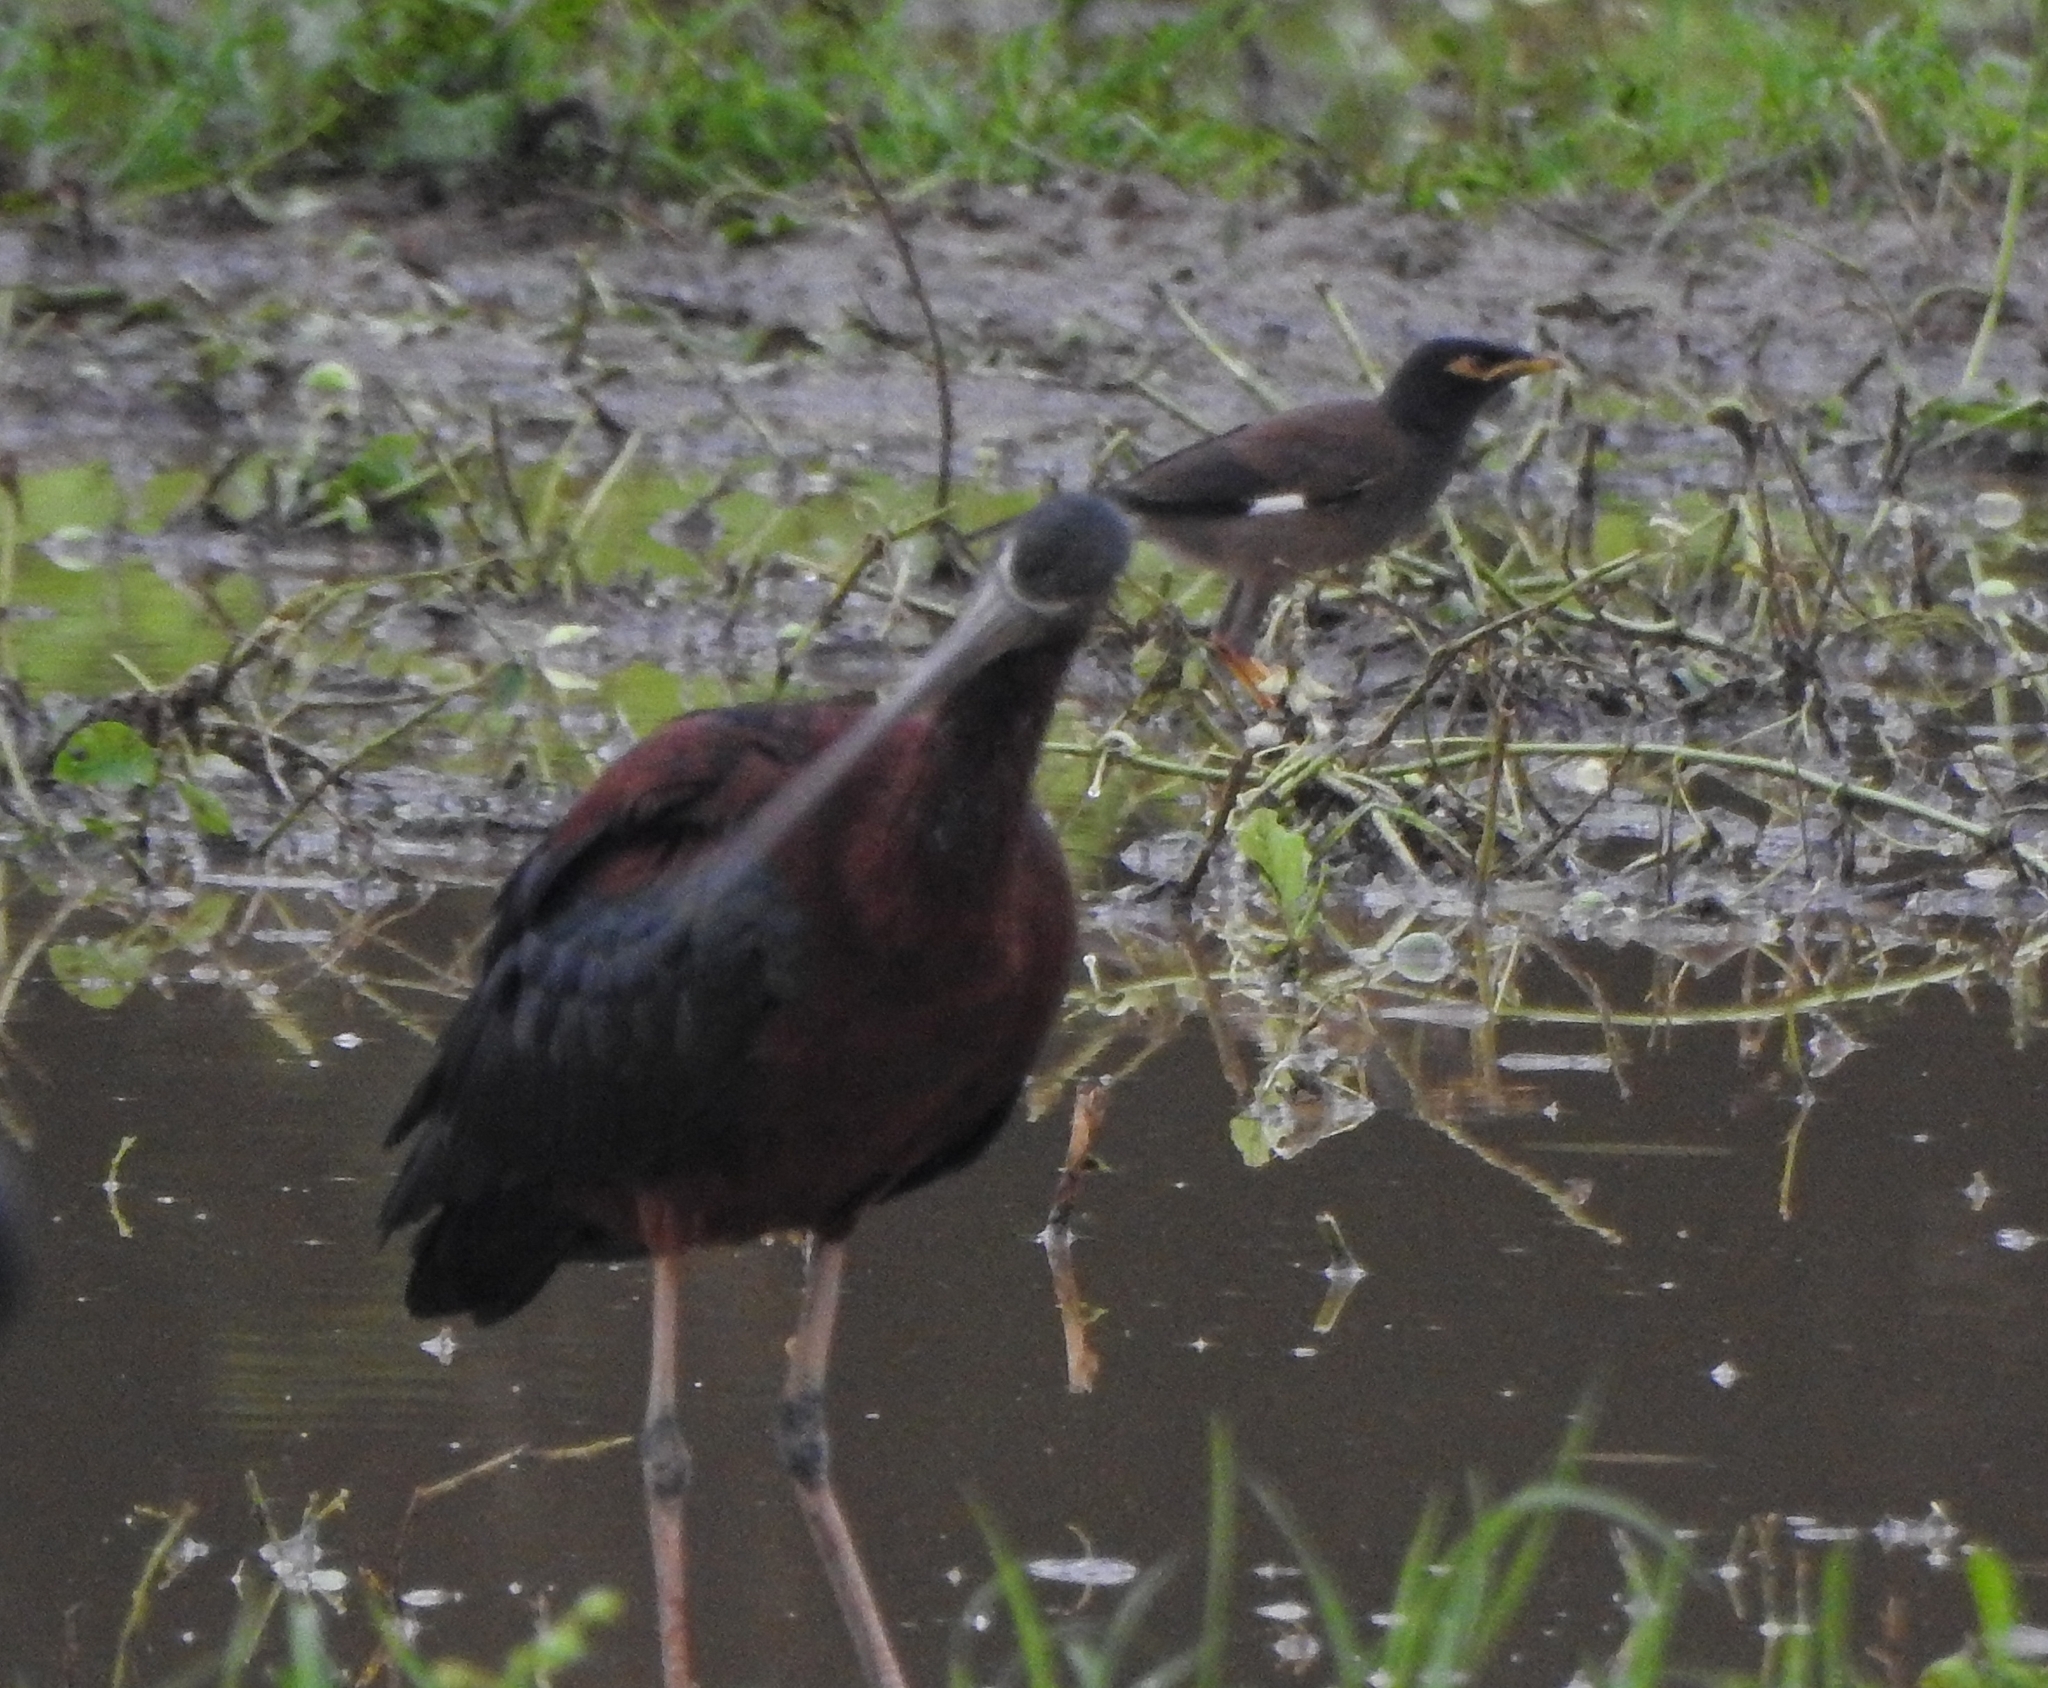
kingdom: Animalia
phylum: Chordata
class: Aves
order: Pelecaniformes
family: Threskiornithidae
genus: Plegadis
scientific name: Plegadis falcinellus
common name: Glossy ibis
